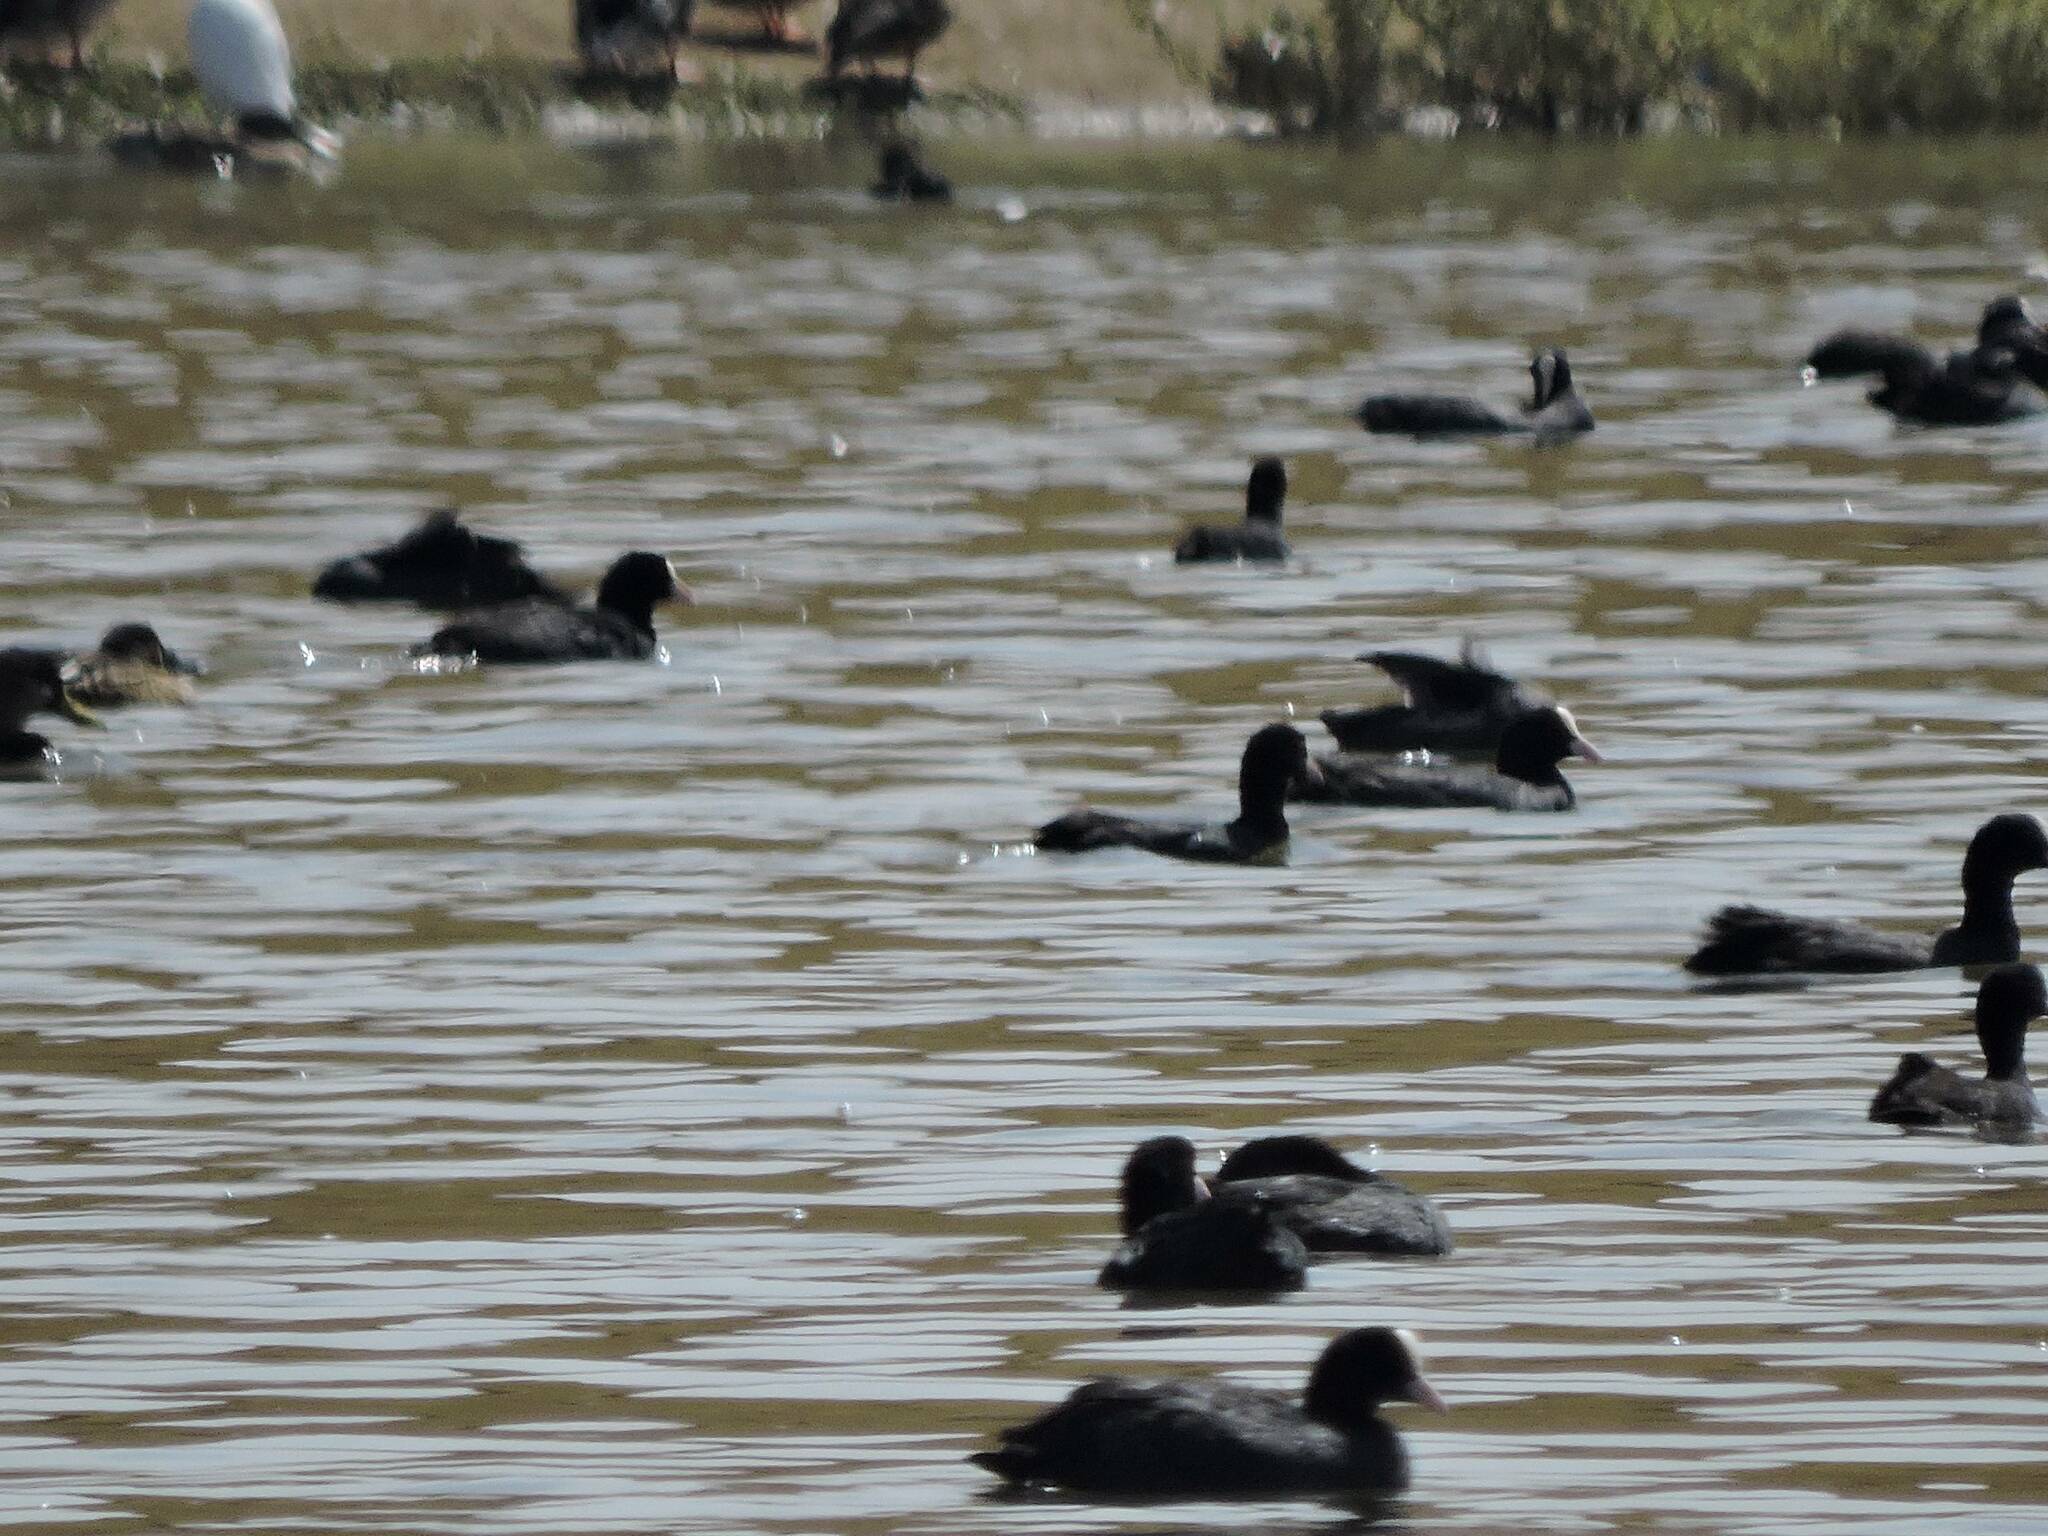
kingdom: Animalia
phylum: Chordata
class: Aves
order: Gruiformes
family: Rallidae
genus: Fulica
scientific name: Fulica atra
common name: Eurasian coot
